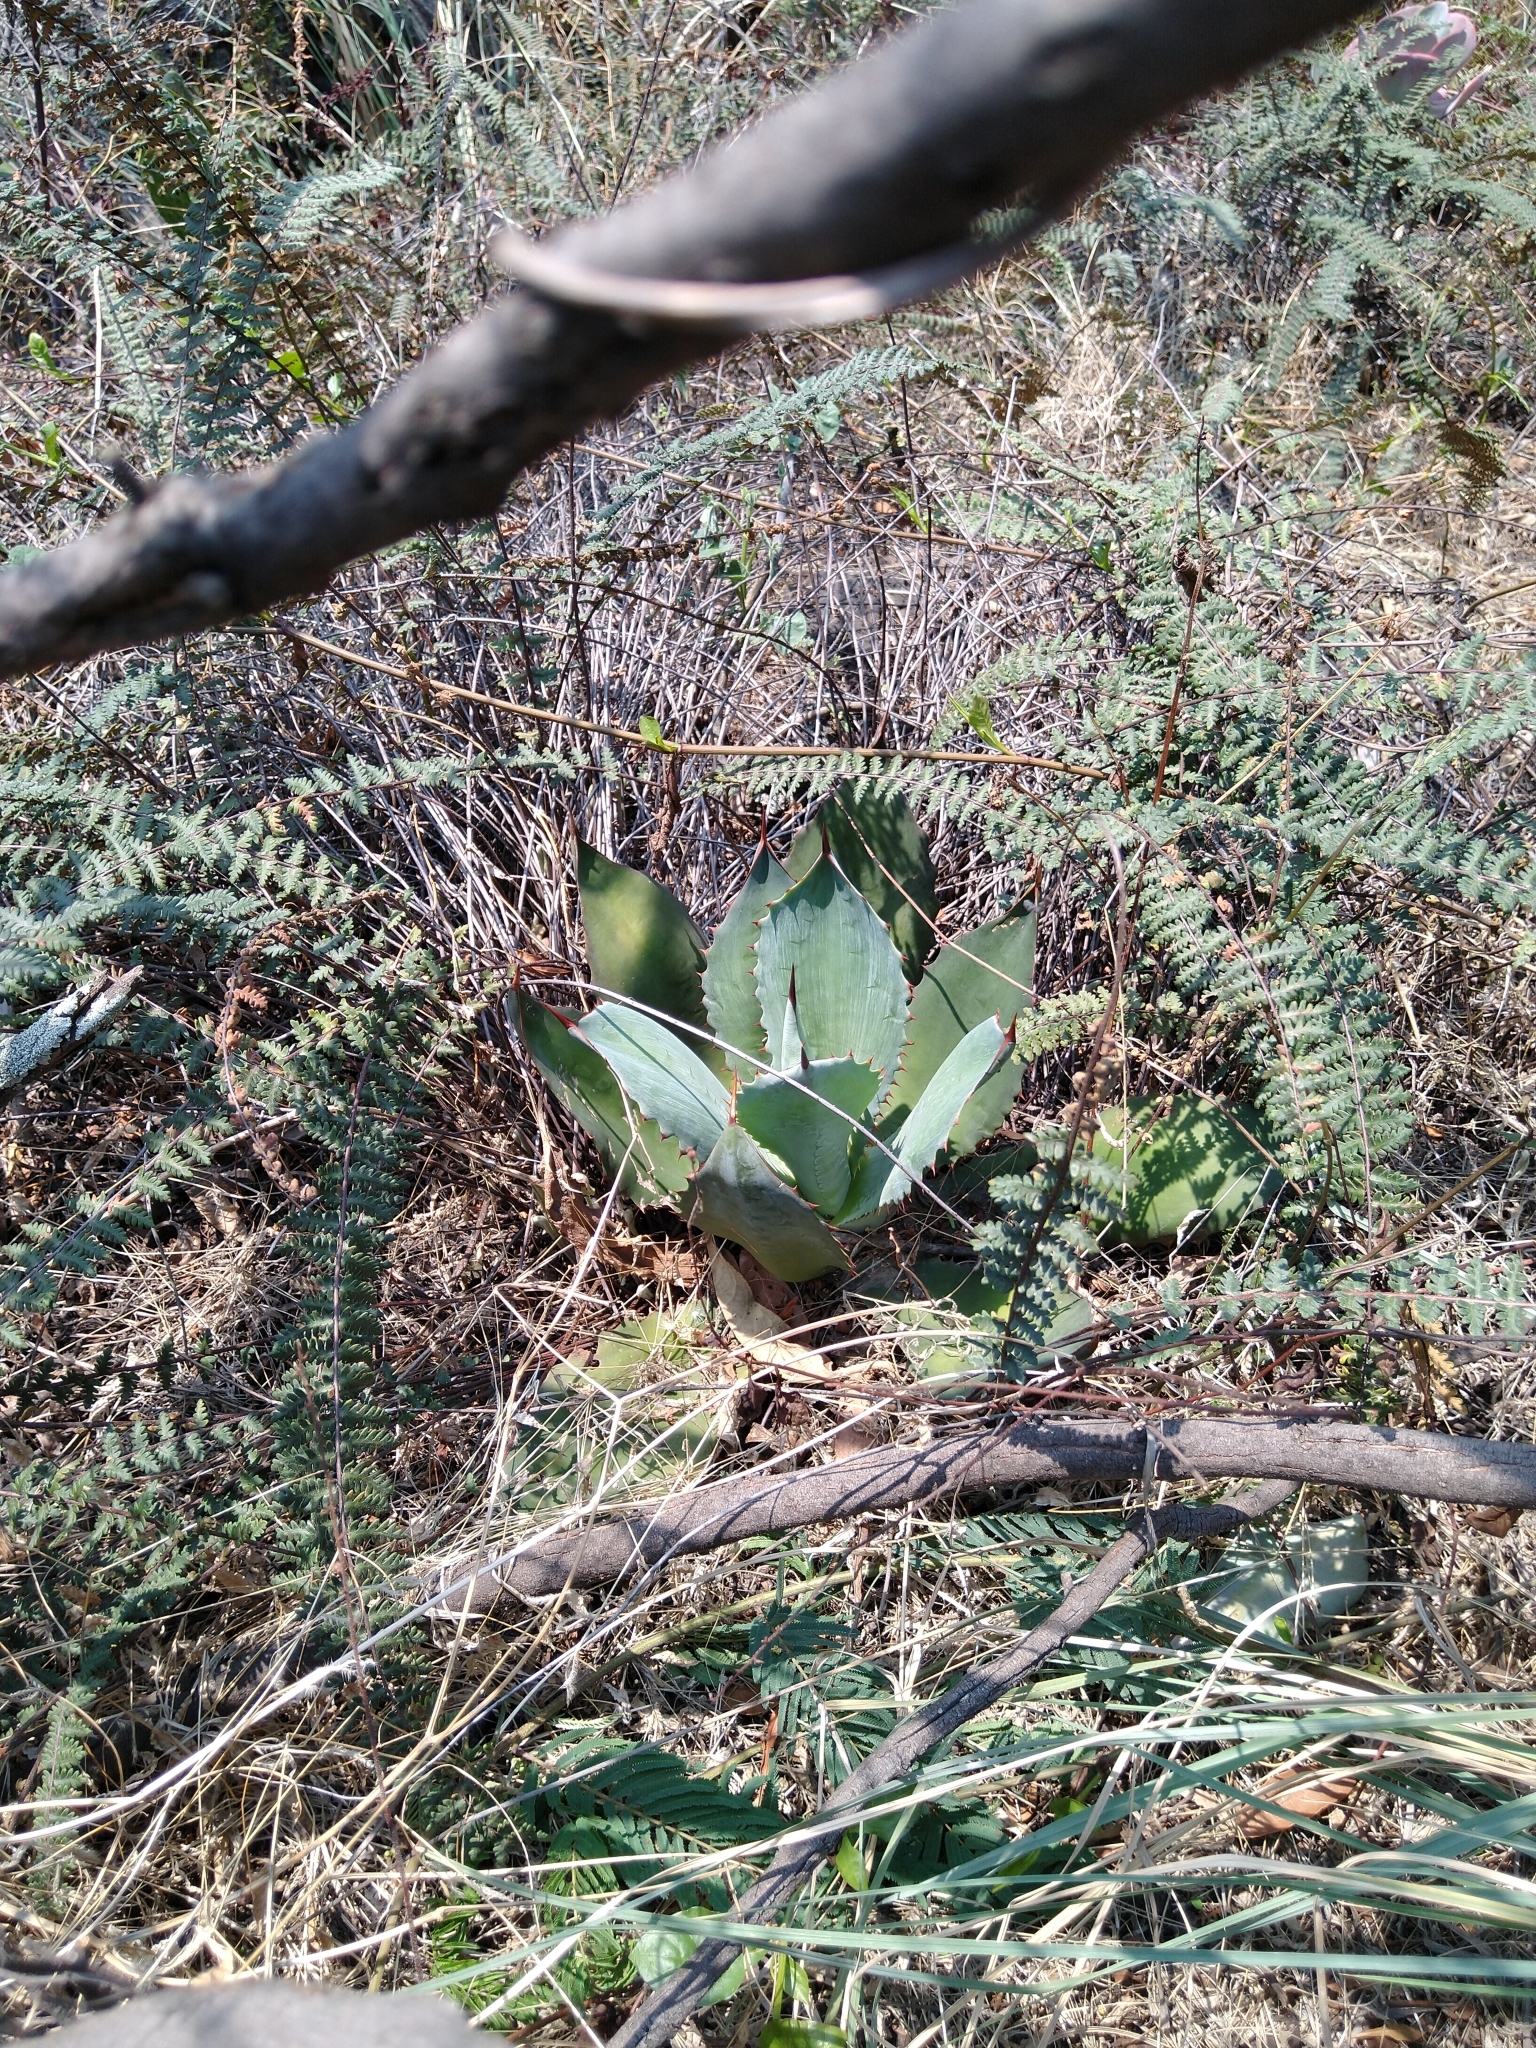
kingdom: Plantae
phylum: Tracheophyta
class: Liliopsida
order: Asparagales
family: Asparagaceae
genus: Agave
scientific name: Agave inaequidens
